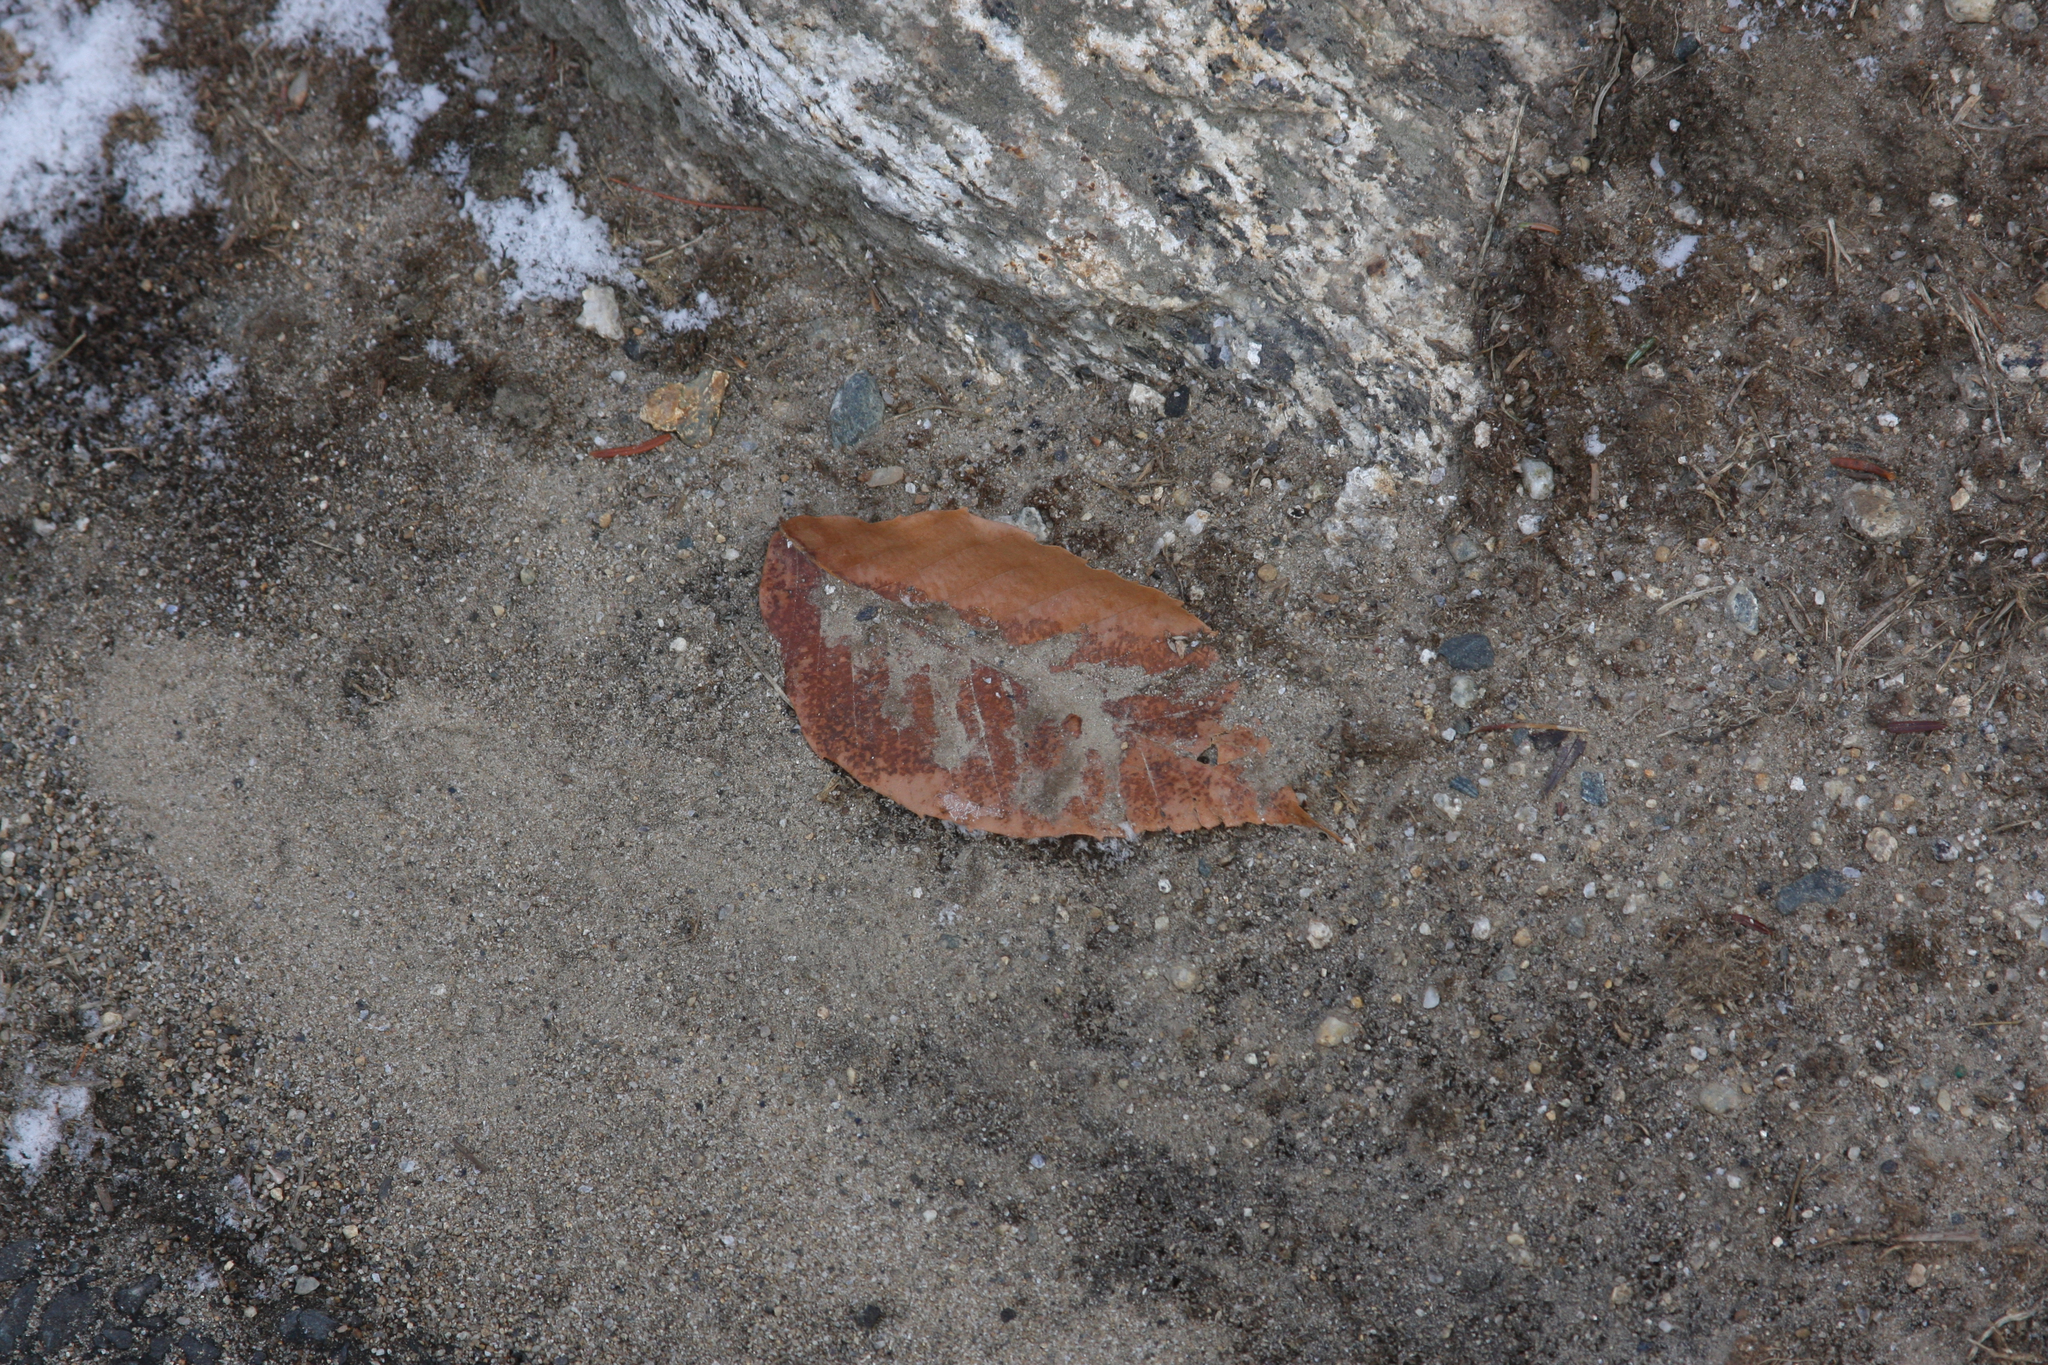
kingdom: Plantae
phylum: Tracheophyta
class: Magnoliopsida
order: Fagales
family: Fagaceae
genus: Fagus
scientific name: Fagus grandifolia
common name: American beech
